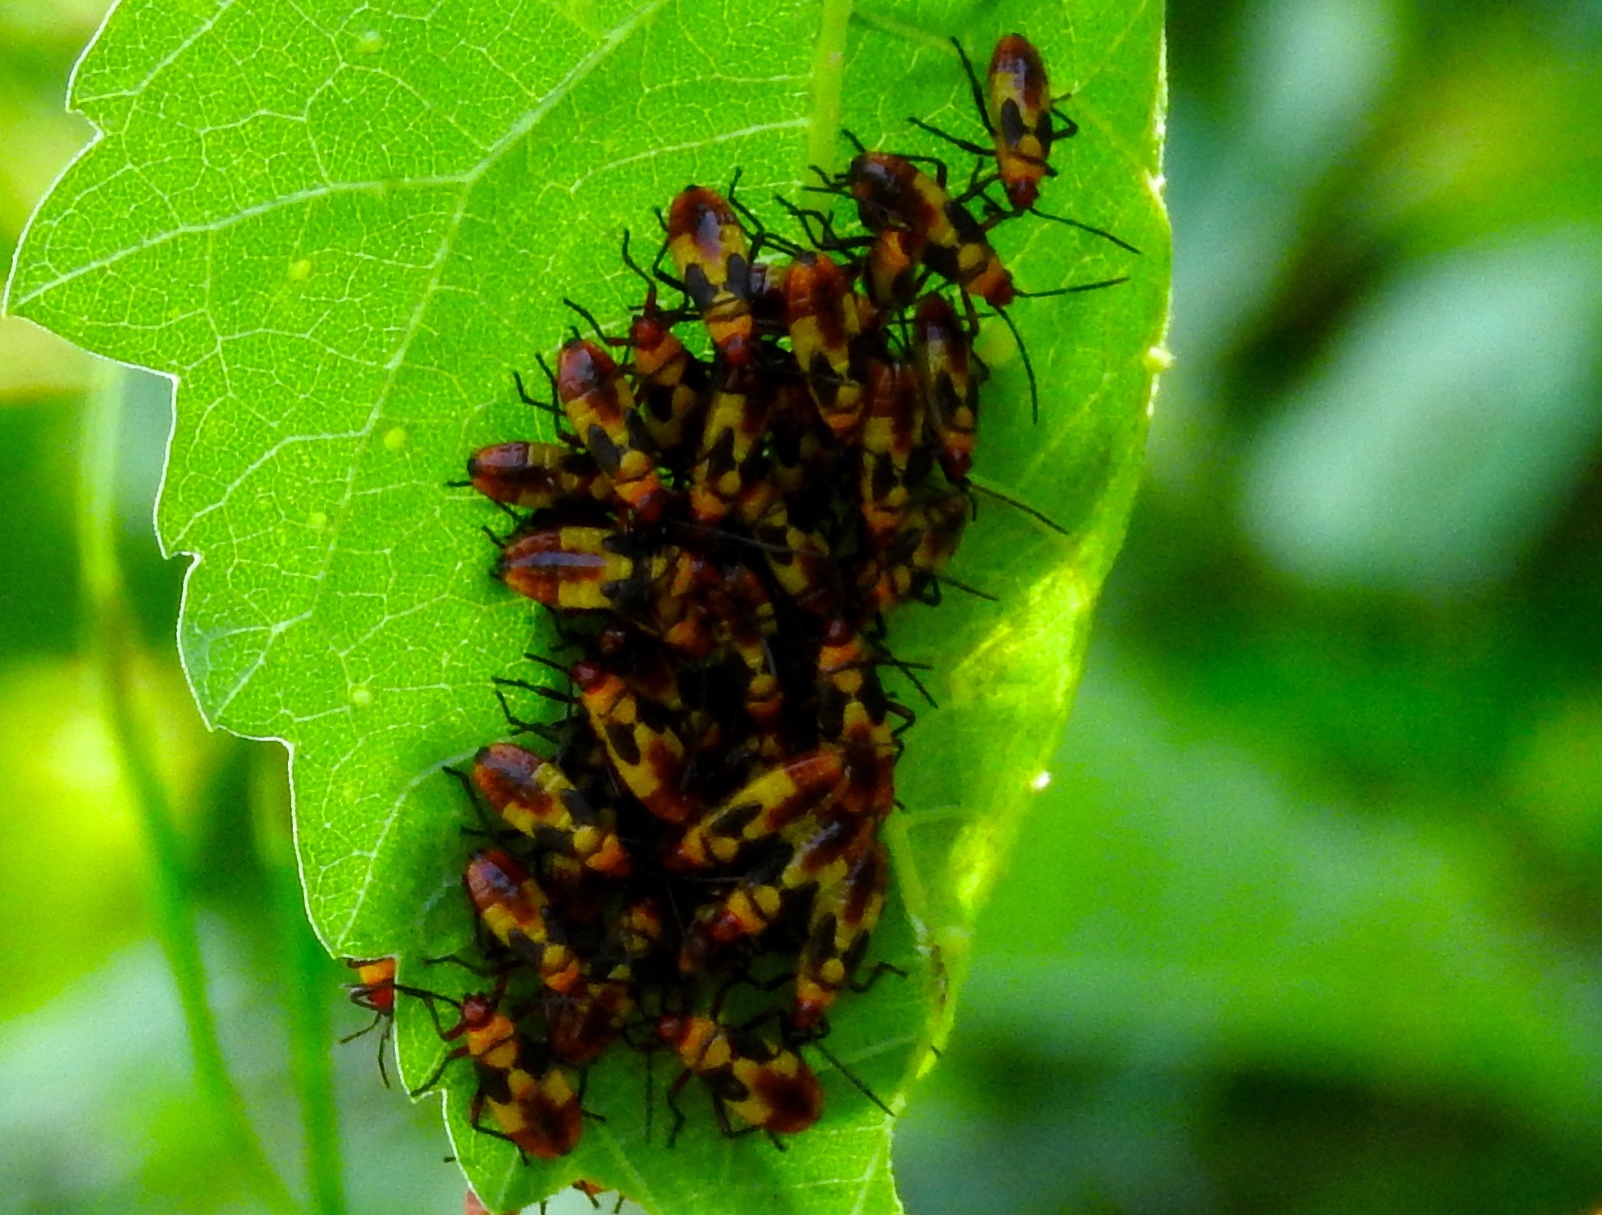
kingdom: Animalia
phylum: Arthropoda
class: Insecta
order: Hemiptera
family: Lygaeidae
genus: Oncopeltus
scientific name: Oncopeltus guttaloides
